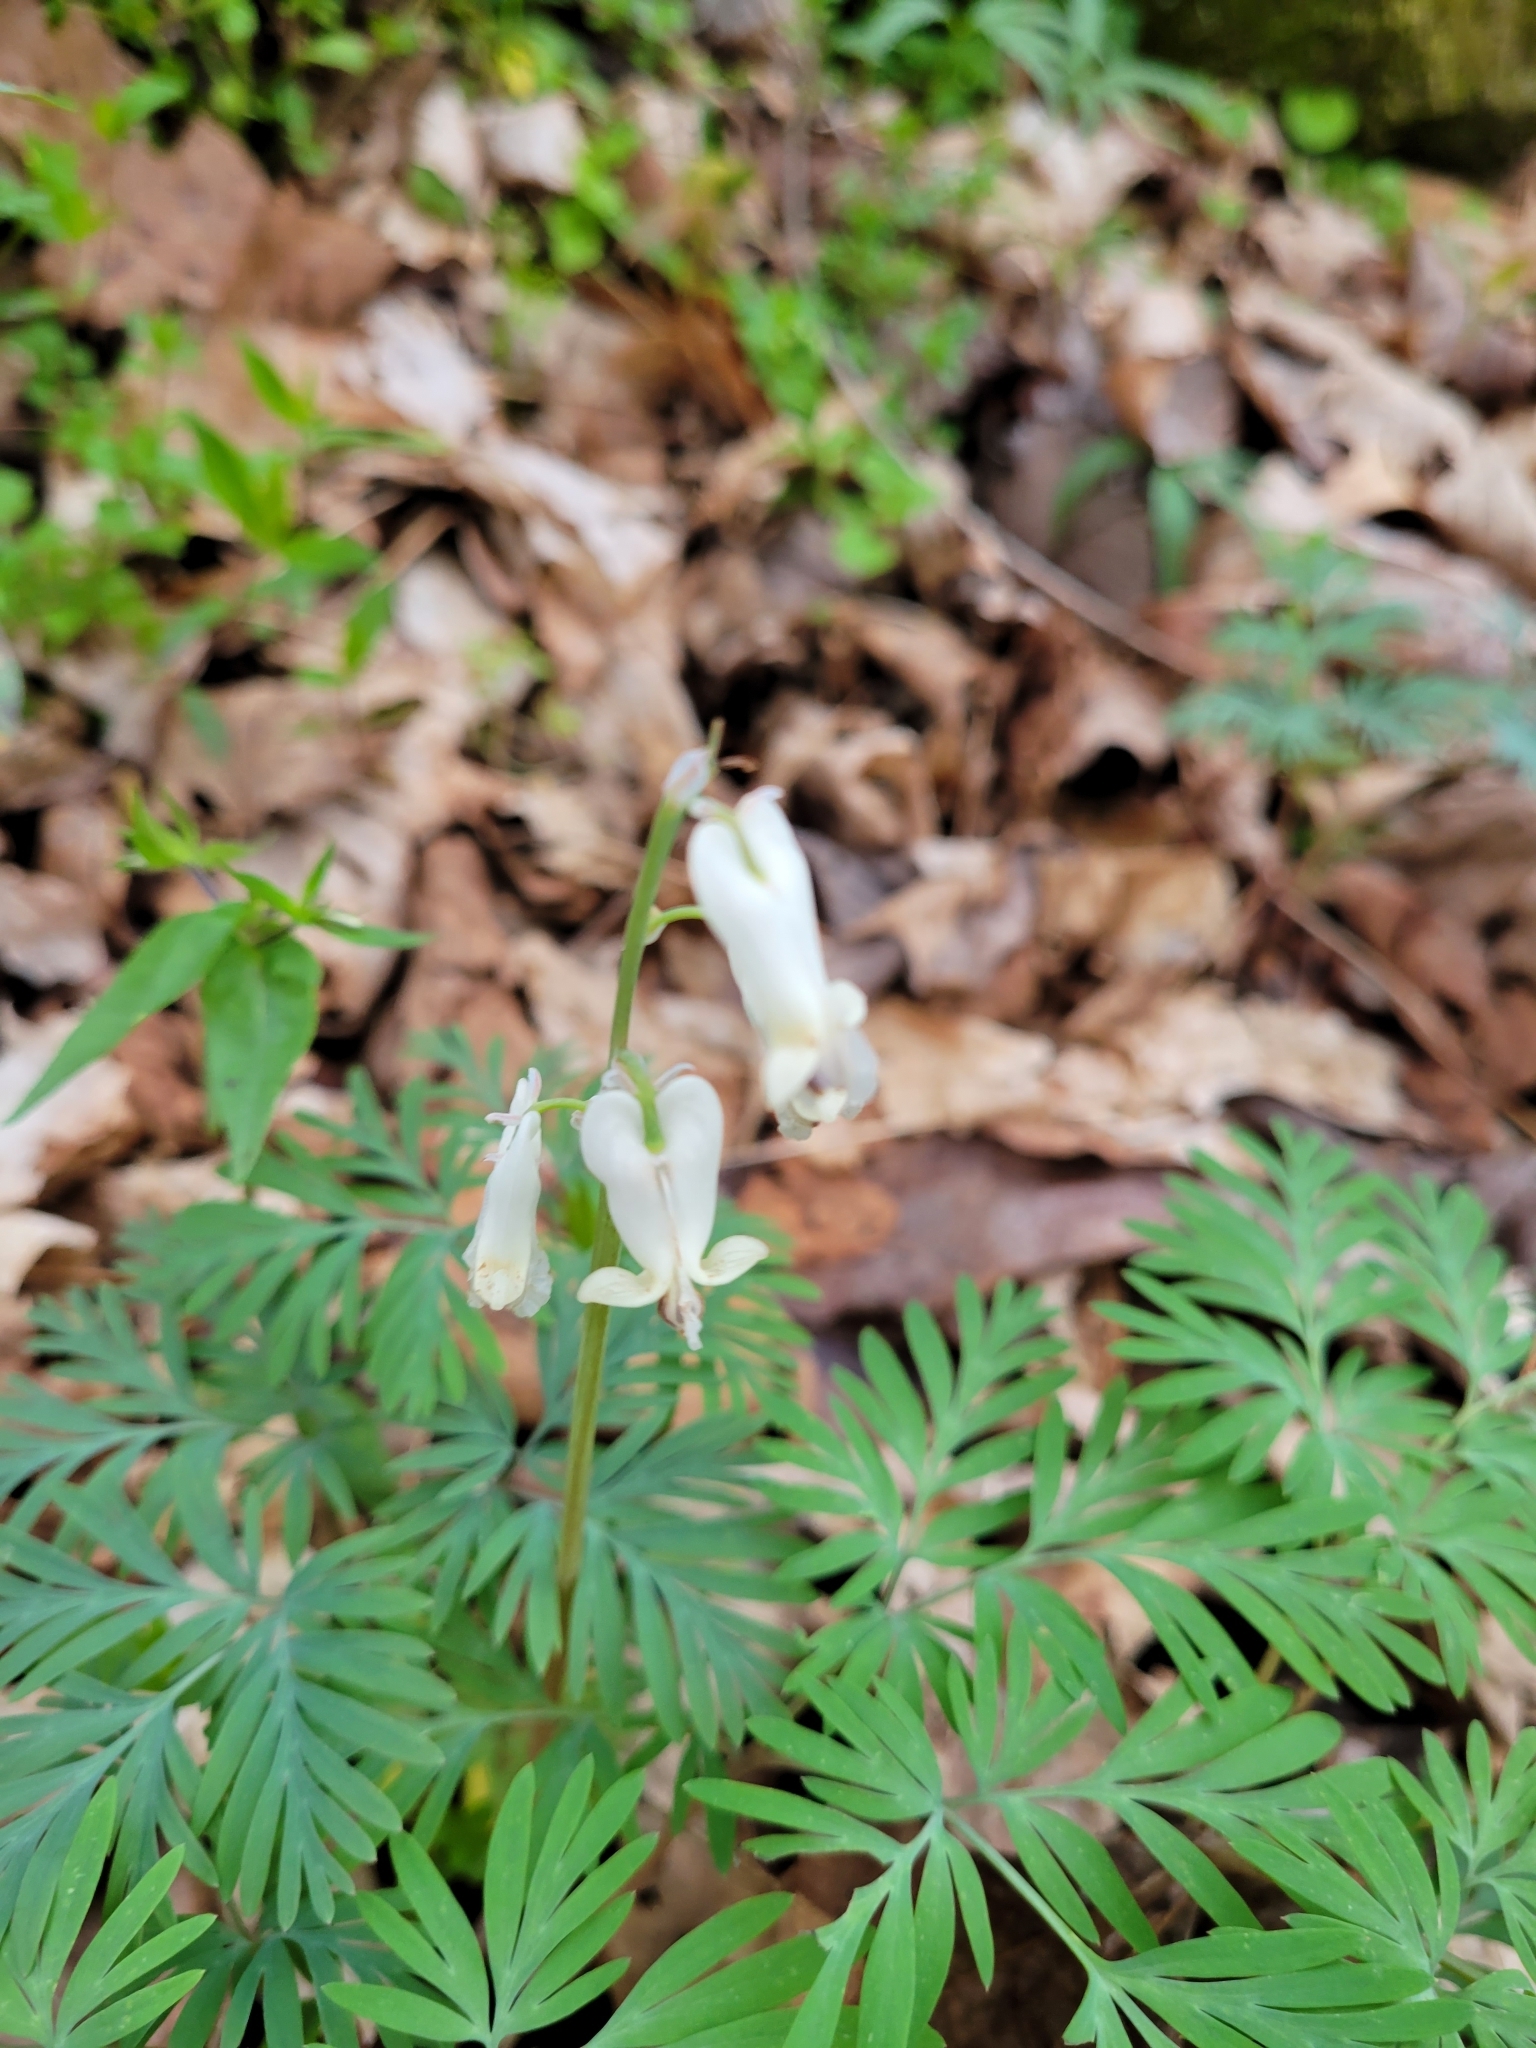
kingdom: Plantae
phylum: Tracheophyta
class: Magnoliopsida
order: Ranunculales
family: Papaveraceae
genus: Dicentra
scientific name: Dicentra canadensis
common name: Squirrel-corn
